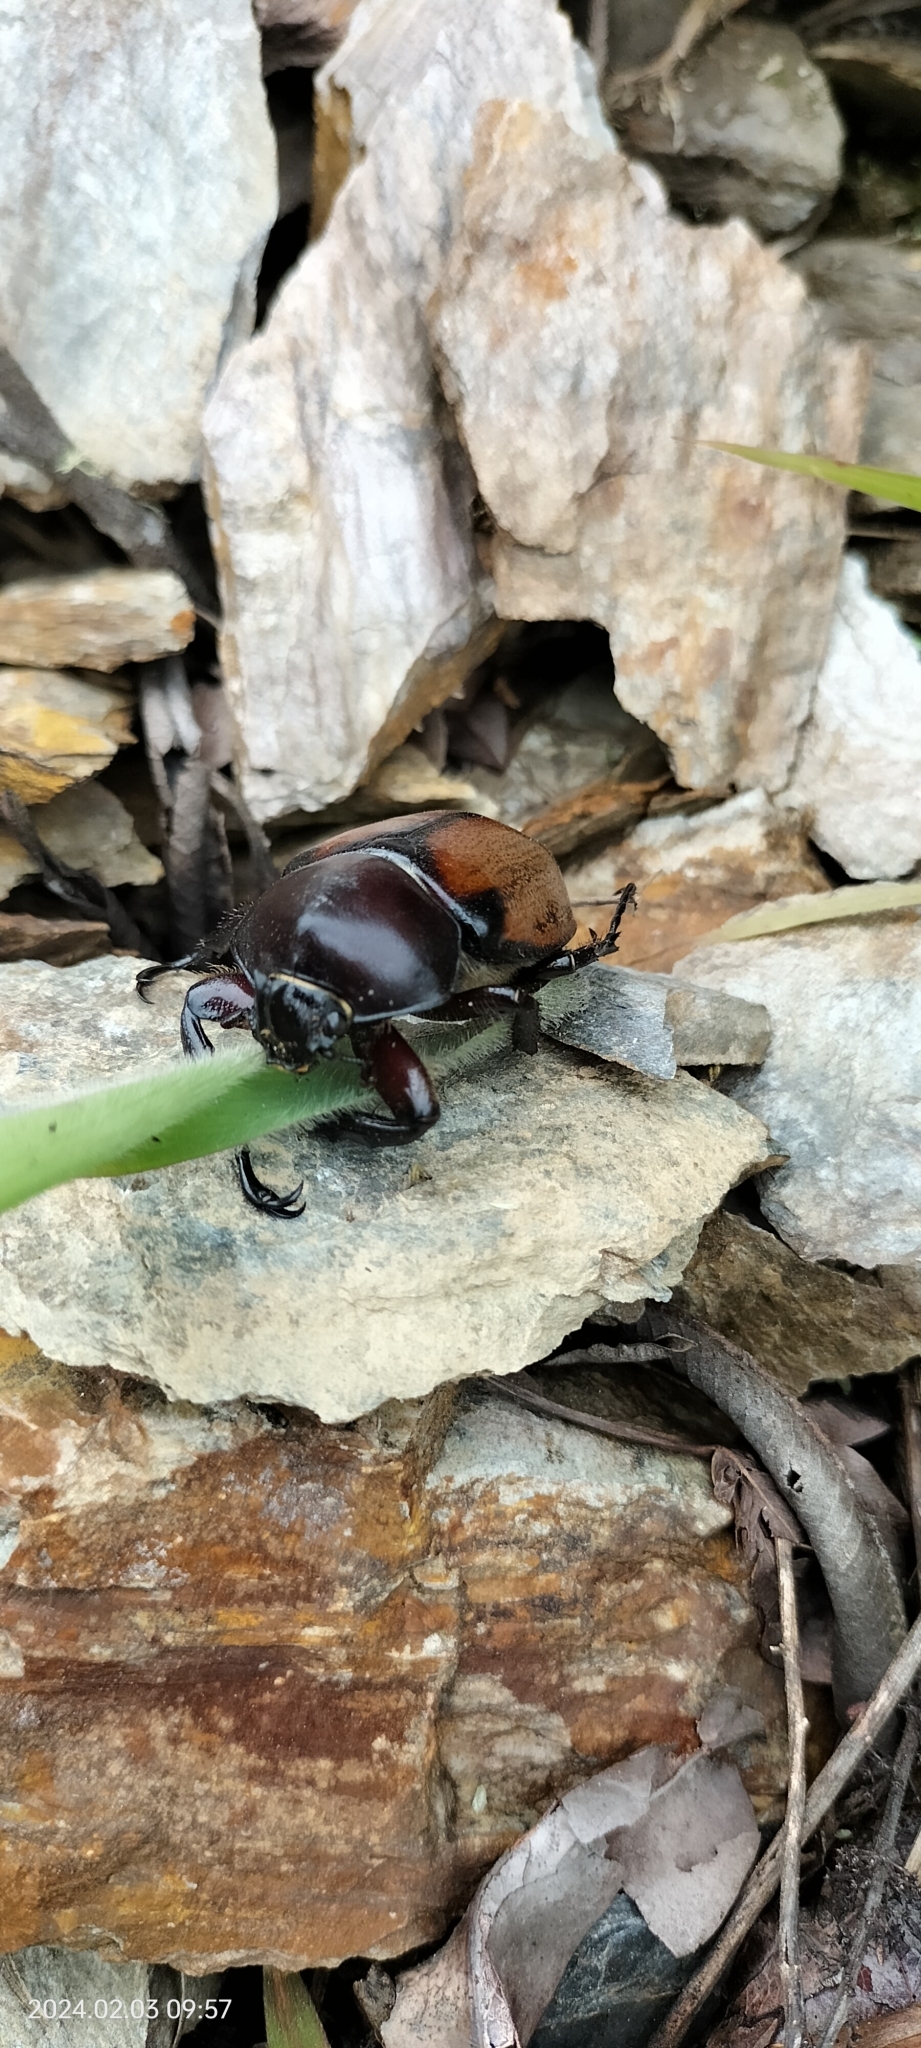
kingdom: Animalia
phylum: Arthropoda
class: Insecta
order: Coleoptera
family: Scarabaeidae
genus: Mitracephala
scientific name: Mitracephala humboldti
